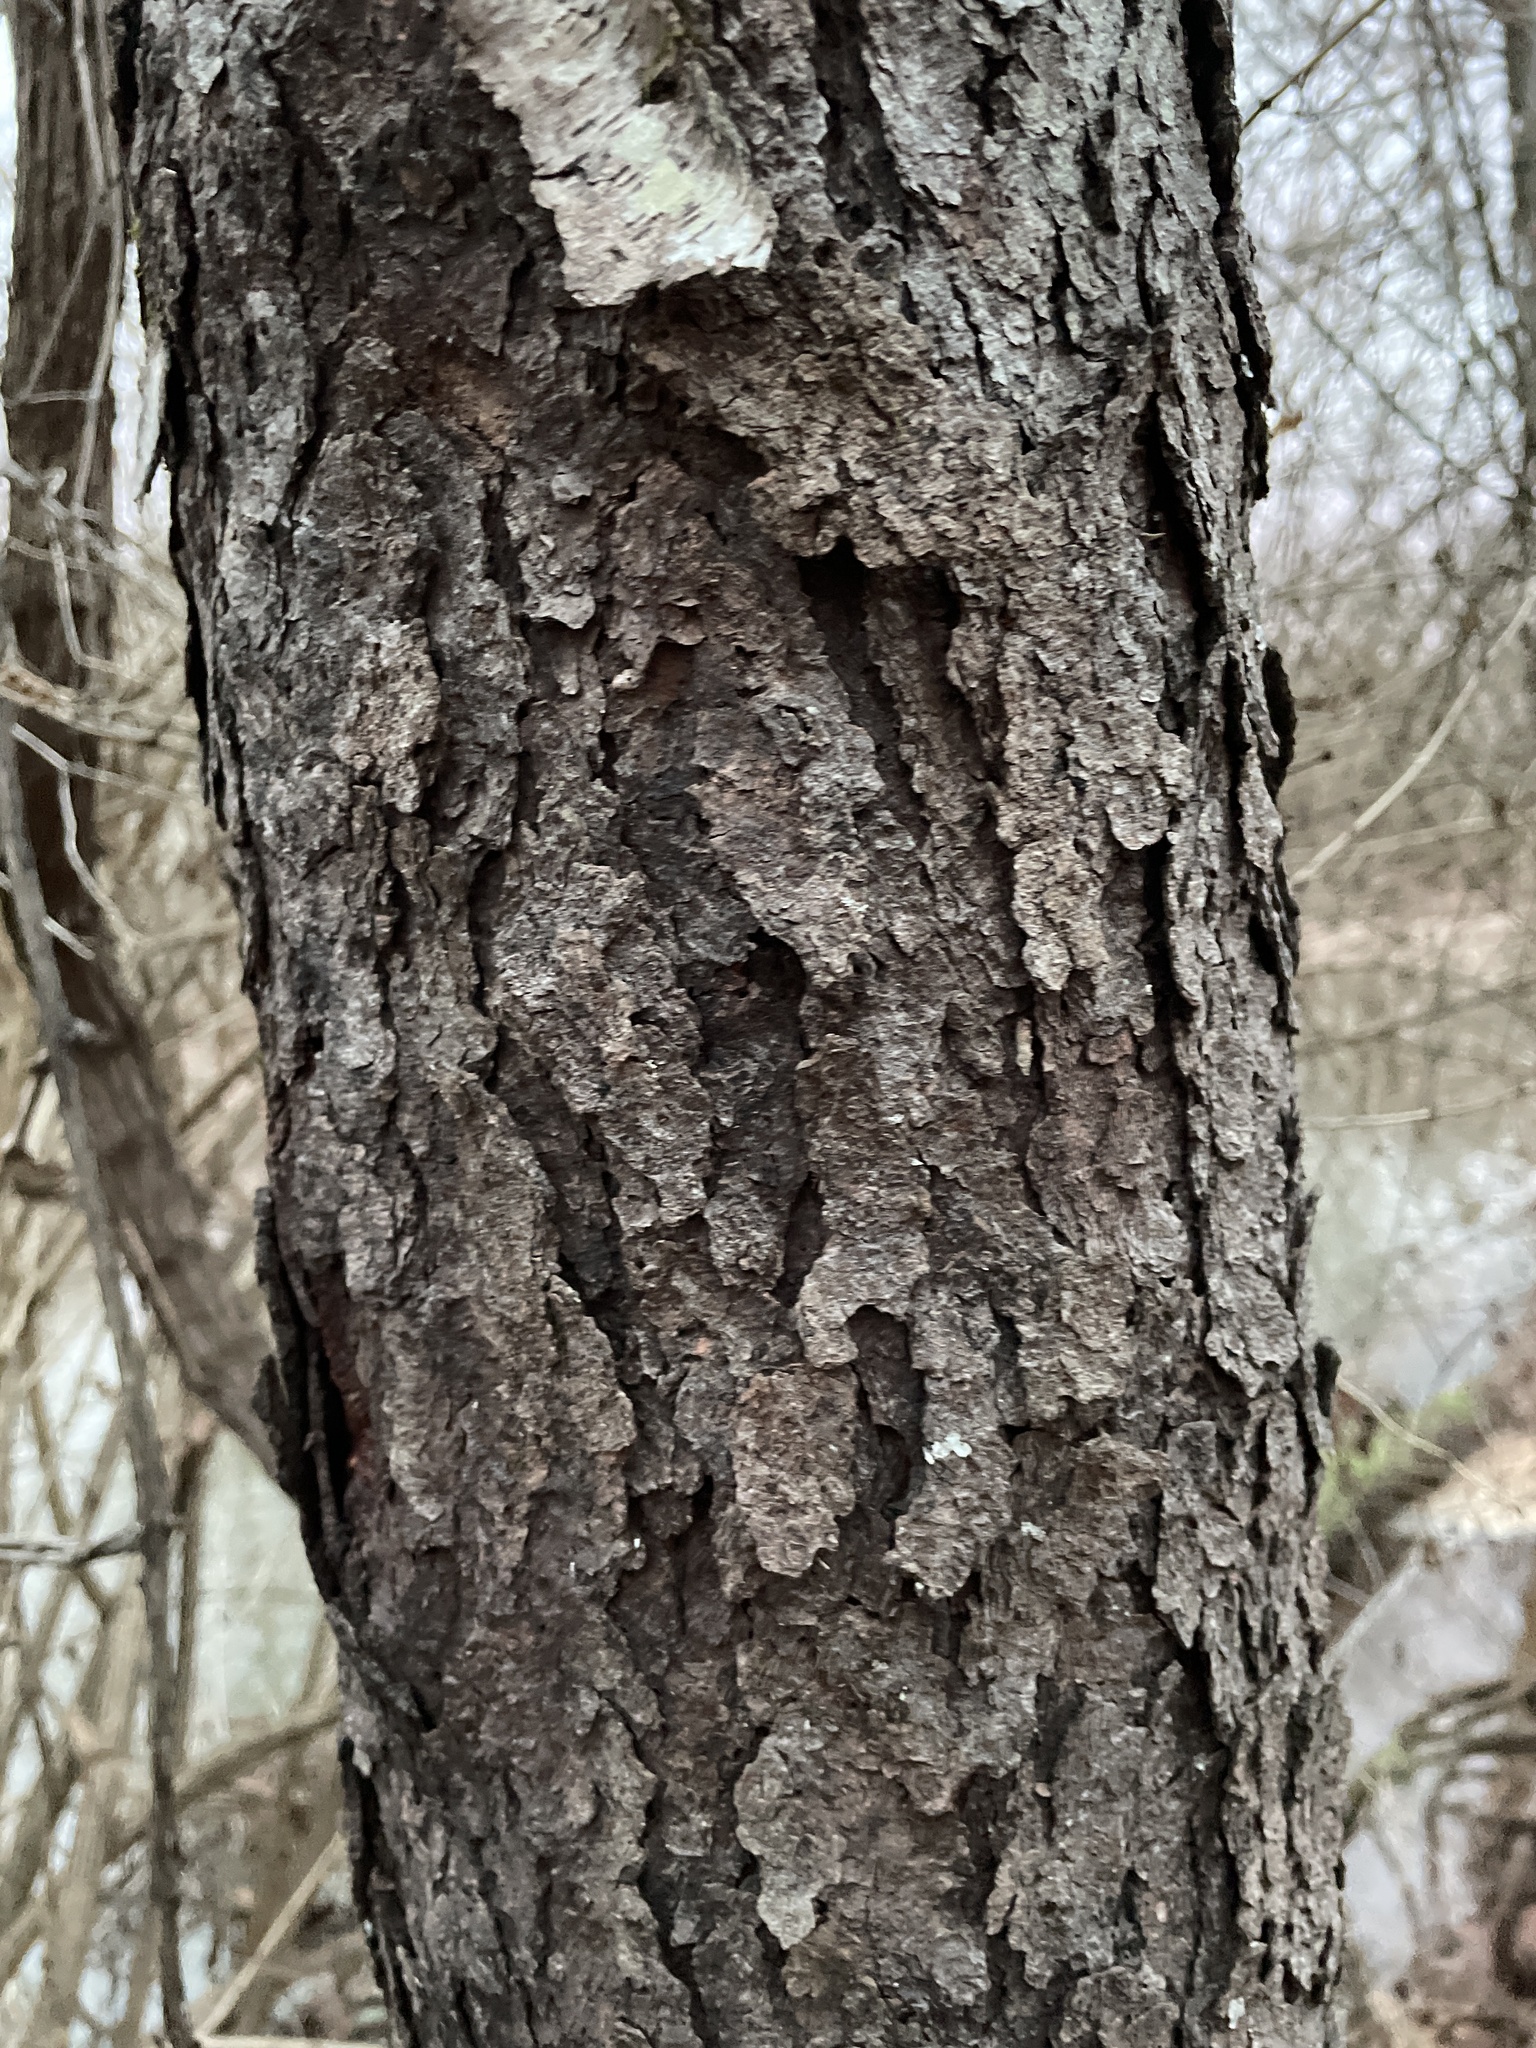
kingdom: Plantae
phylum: Tracheophyta
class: Magnoliopsida
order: Rosales
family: Rosaceae
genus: Prunus
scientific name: Prunus serotina
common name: Black cherry
